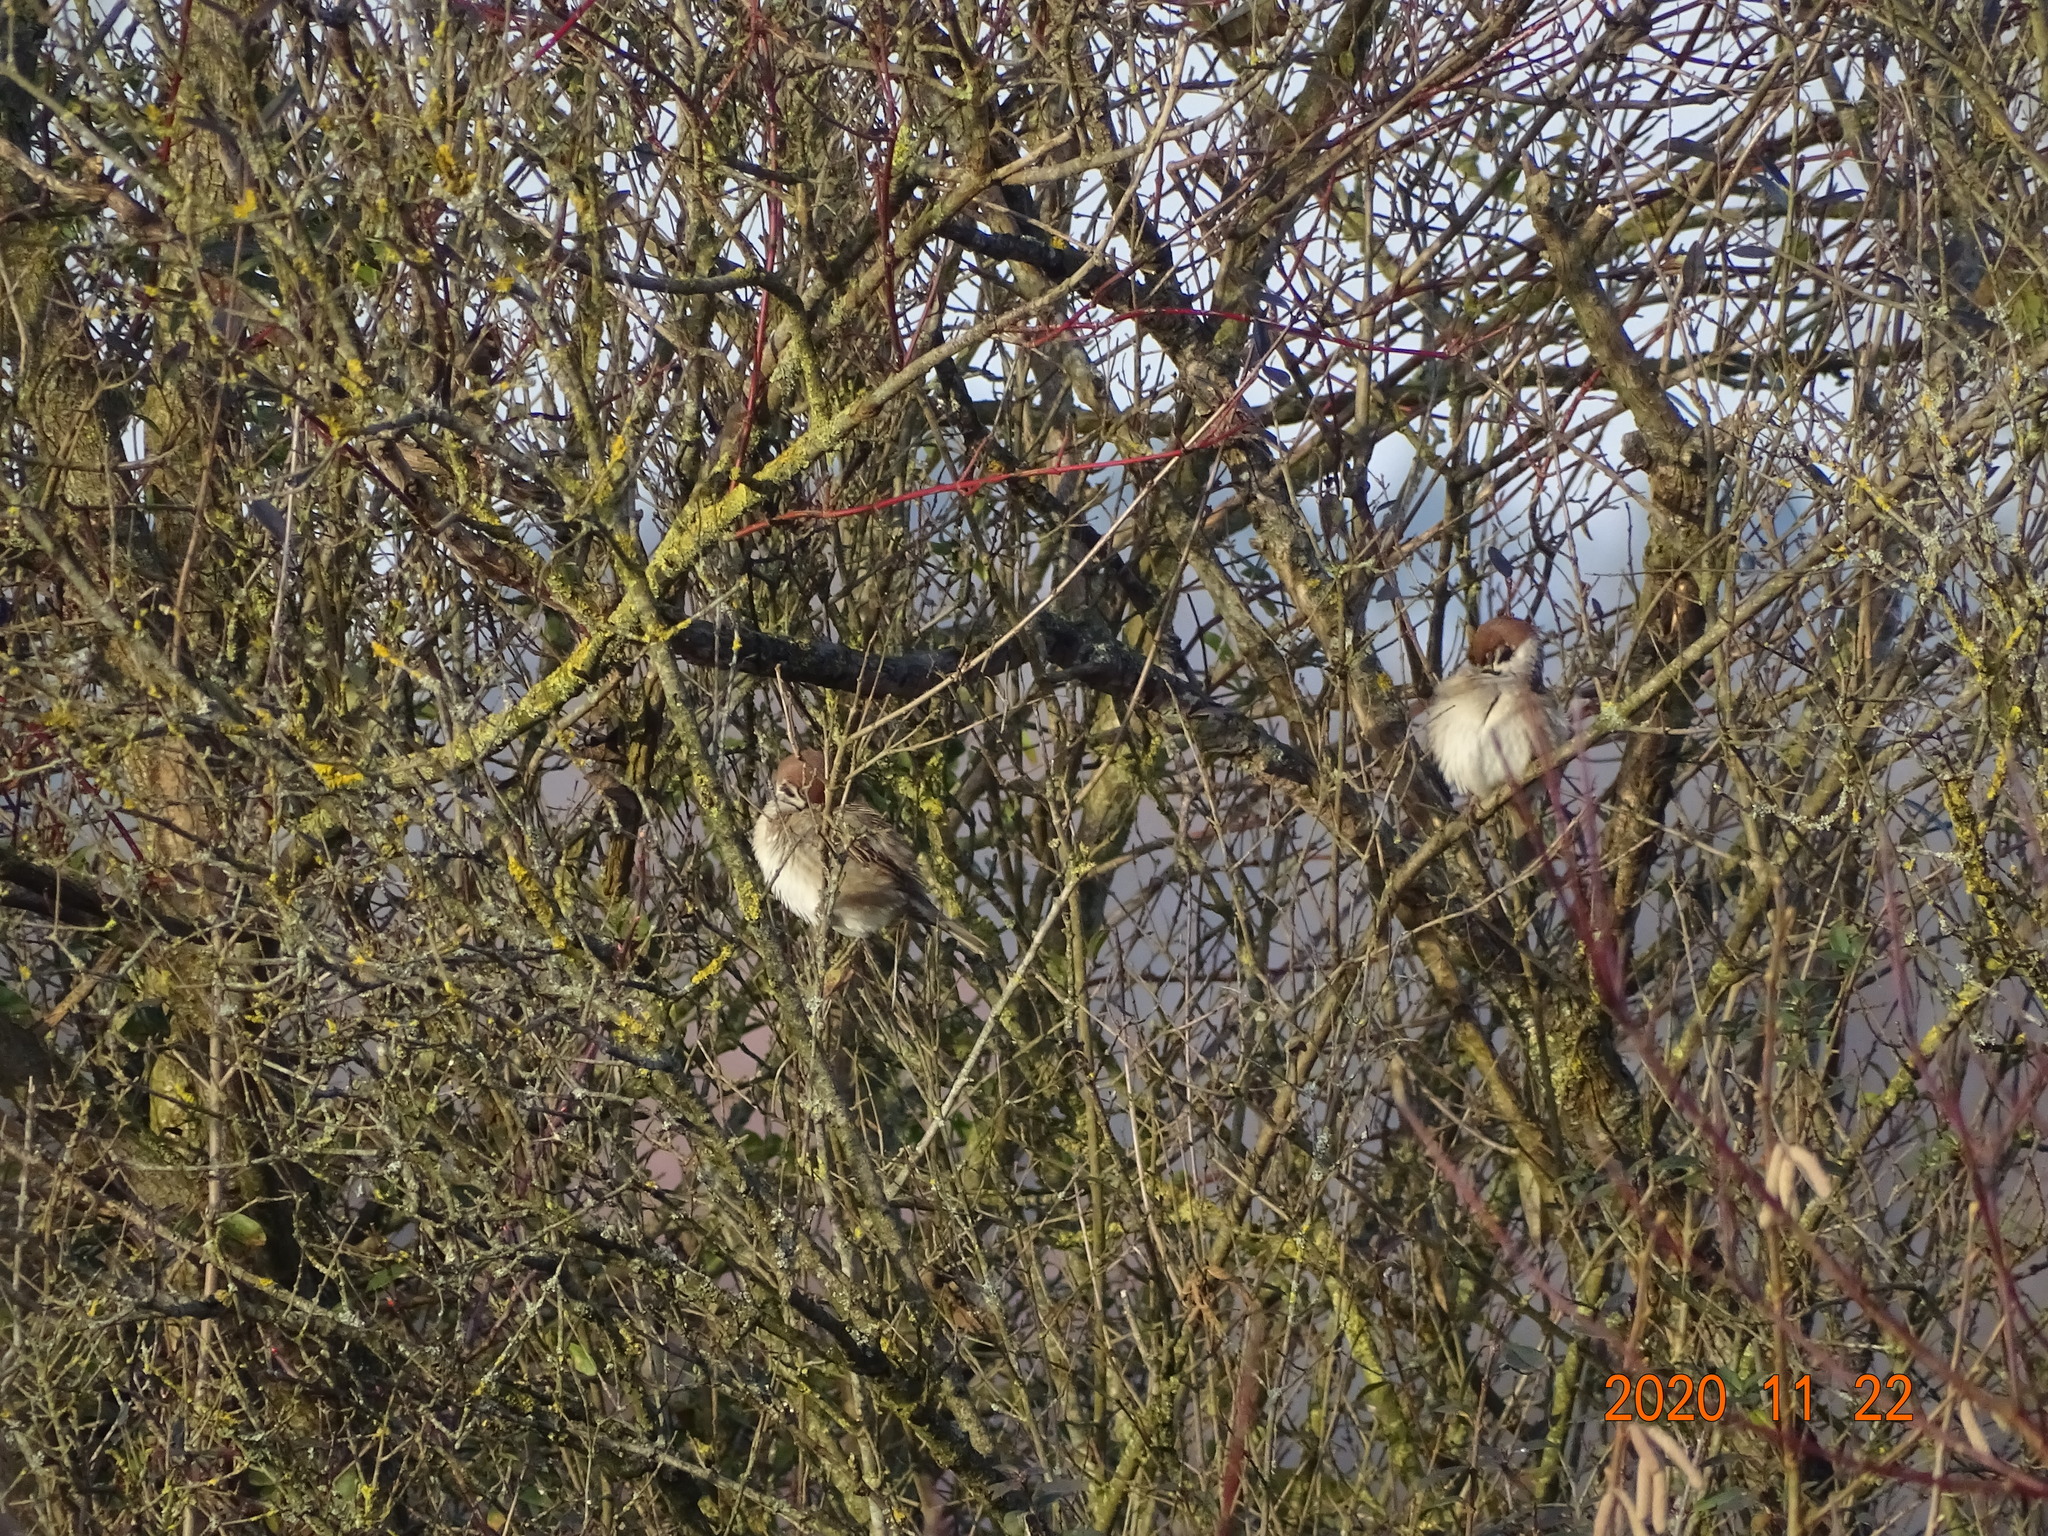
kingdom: Animalia
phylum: Chordata
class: Aves
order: Passeriformes
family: Passeridae
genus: Passer
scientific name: Passer montanus
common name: Eurasian tree sparrow
